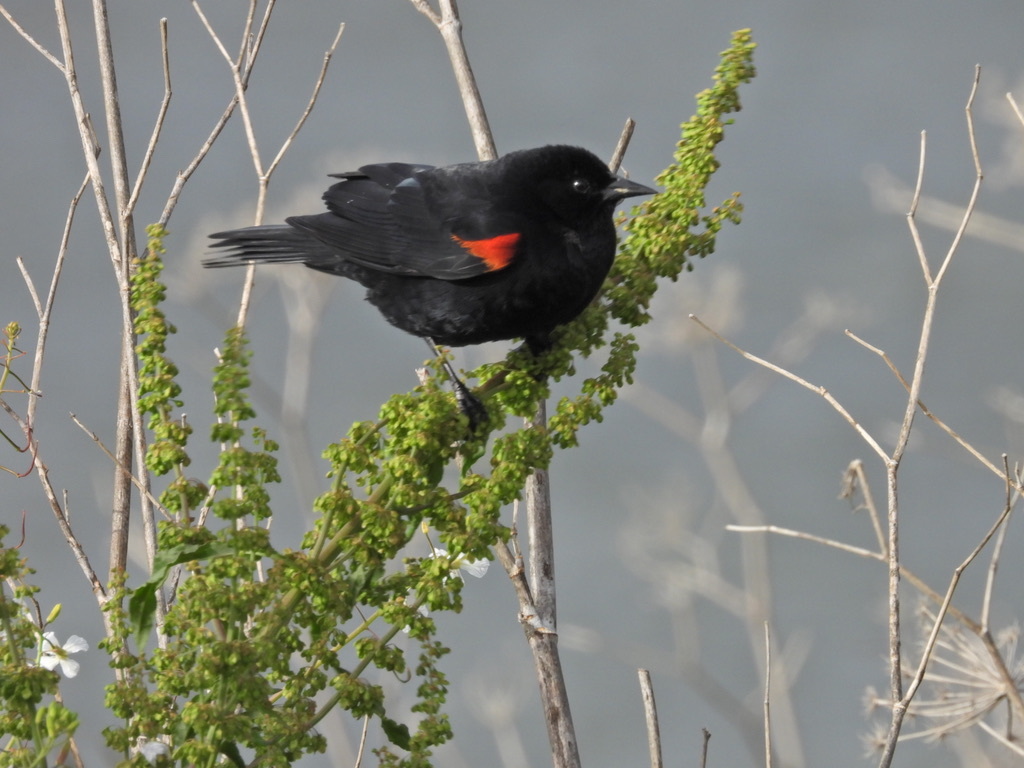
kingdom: Animalia
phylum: Chordata
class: Aves
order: Passeriformes
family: Icteridae
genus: Agelaius
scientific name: Agelaius phoeniceus
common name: Red-winged blackbird
